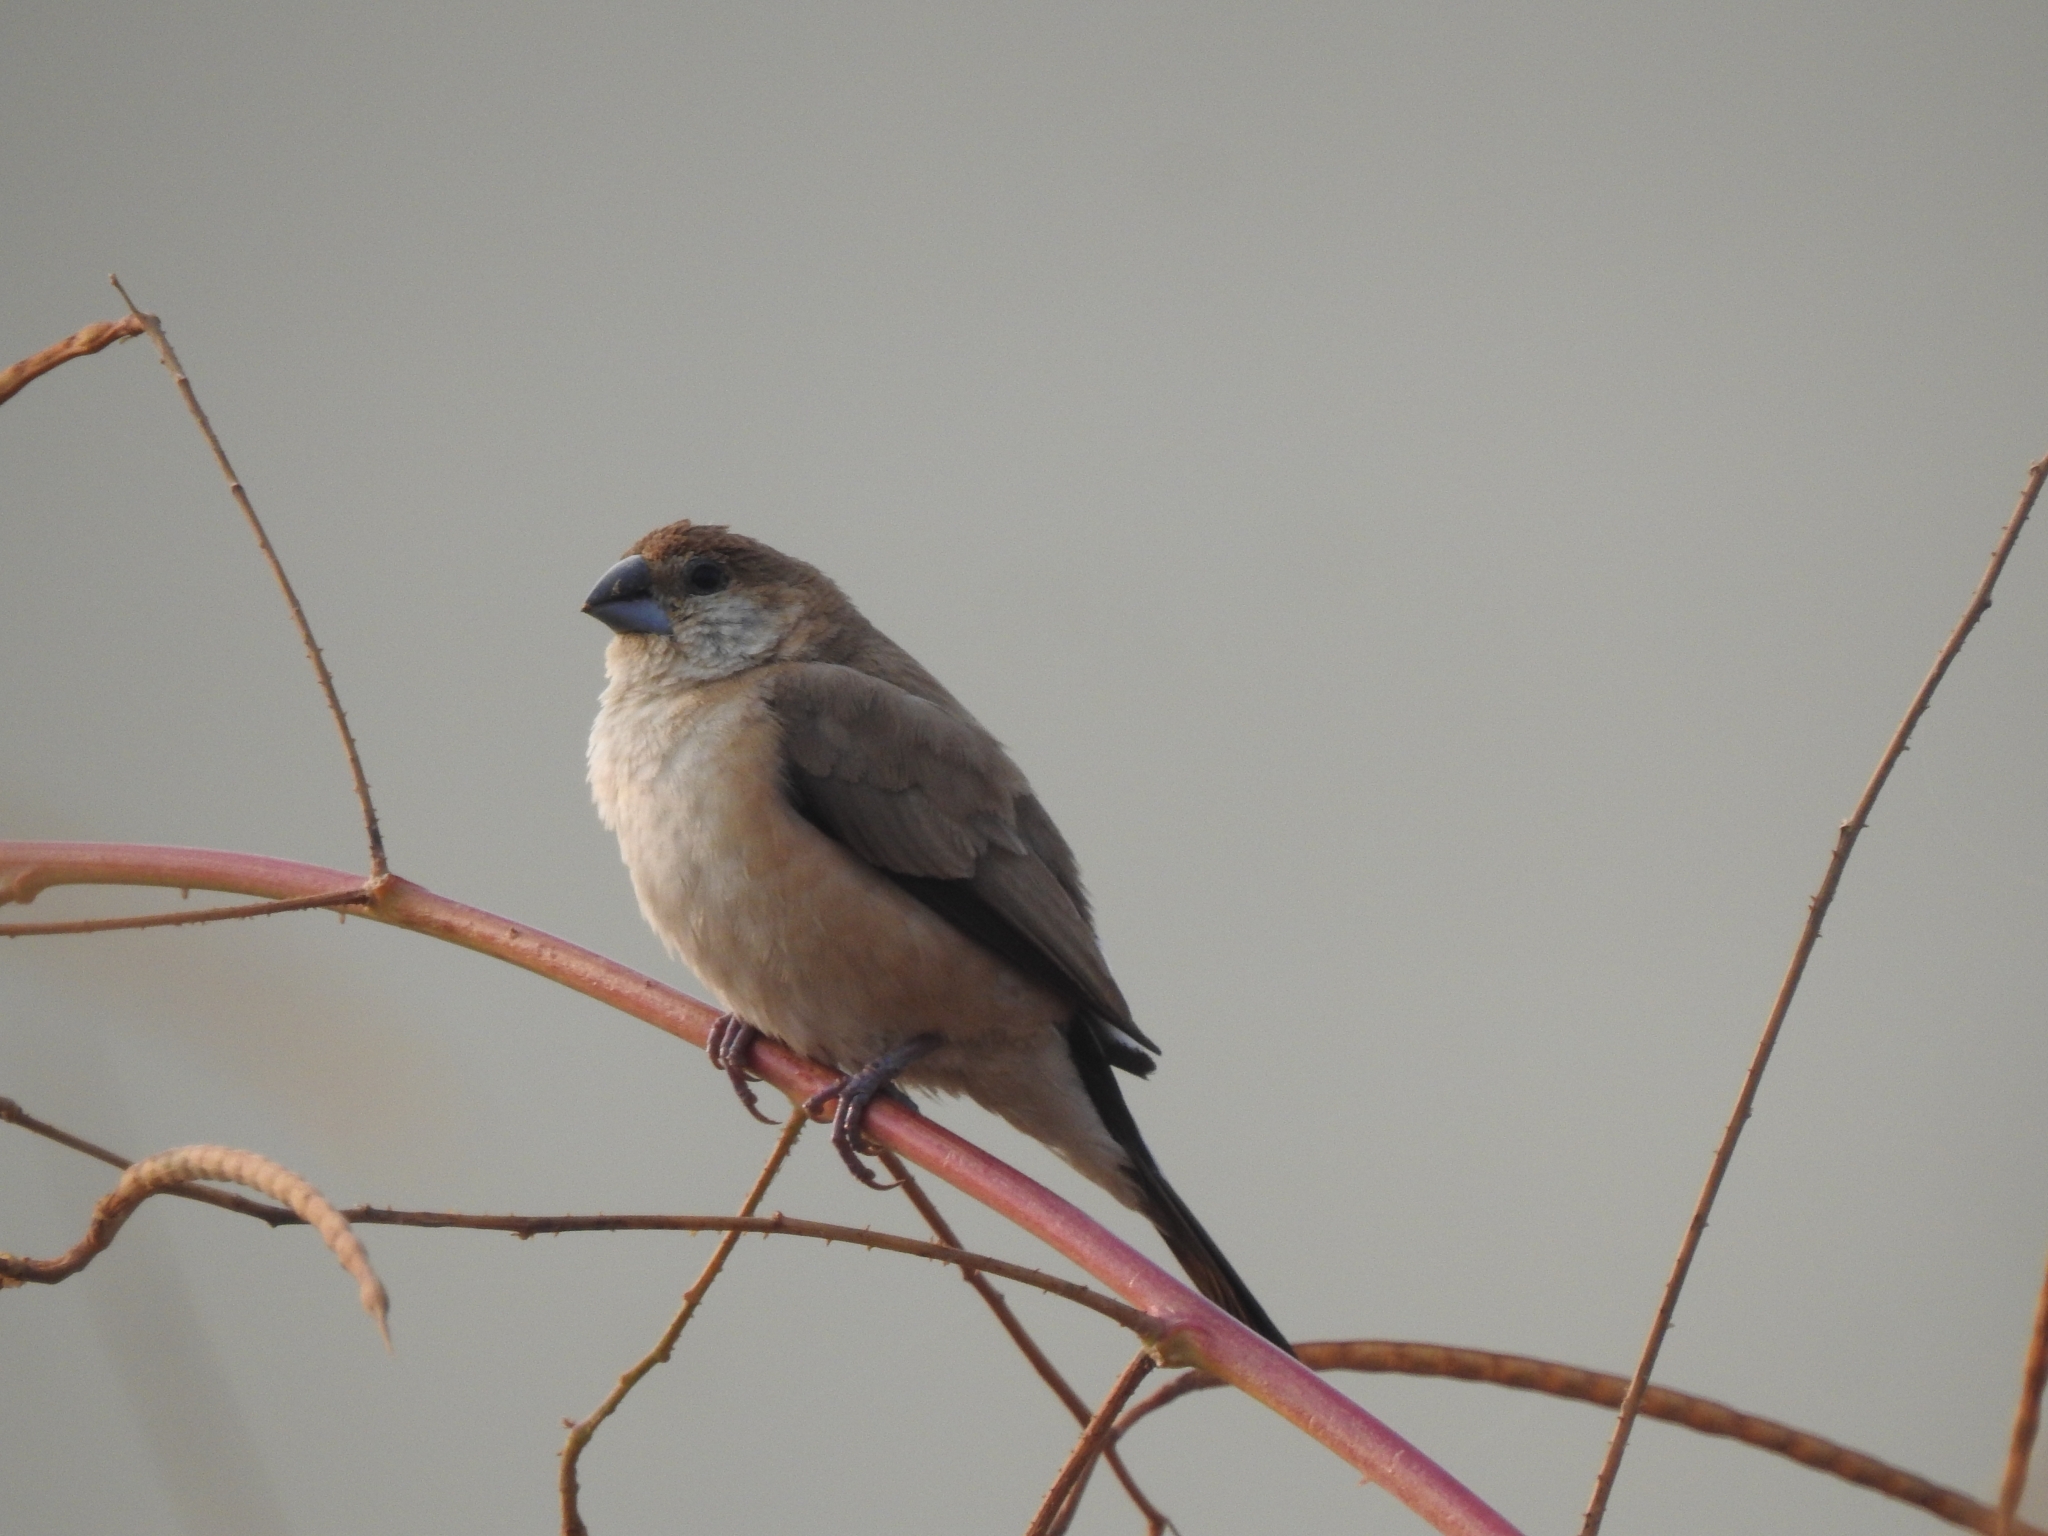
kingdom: Animalia
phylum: Chordata
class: Aves
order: Passeriformes
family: Estrildidae
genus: Euodice
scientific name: Euodice malabarica
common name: Indian silverbill
